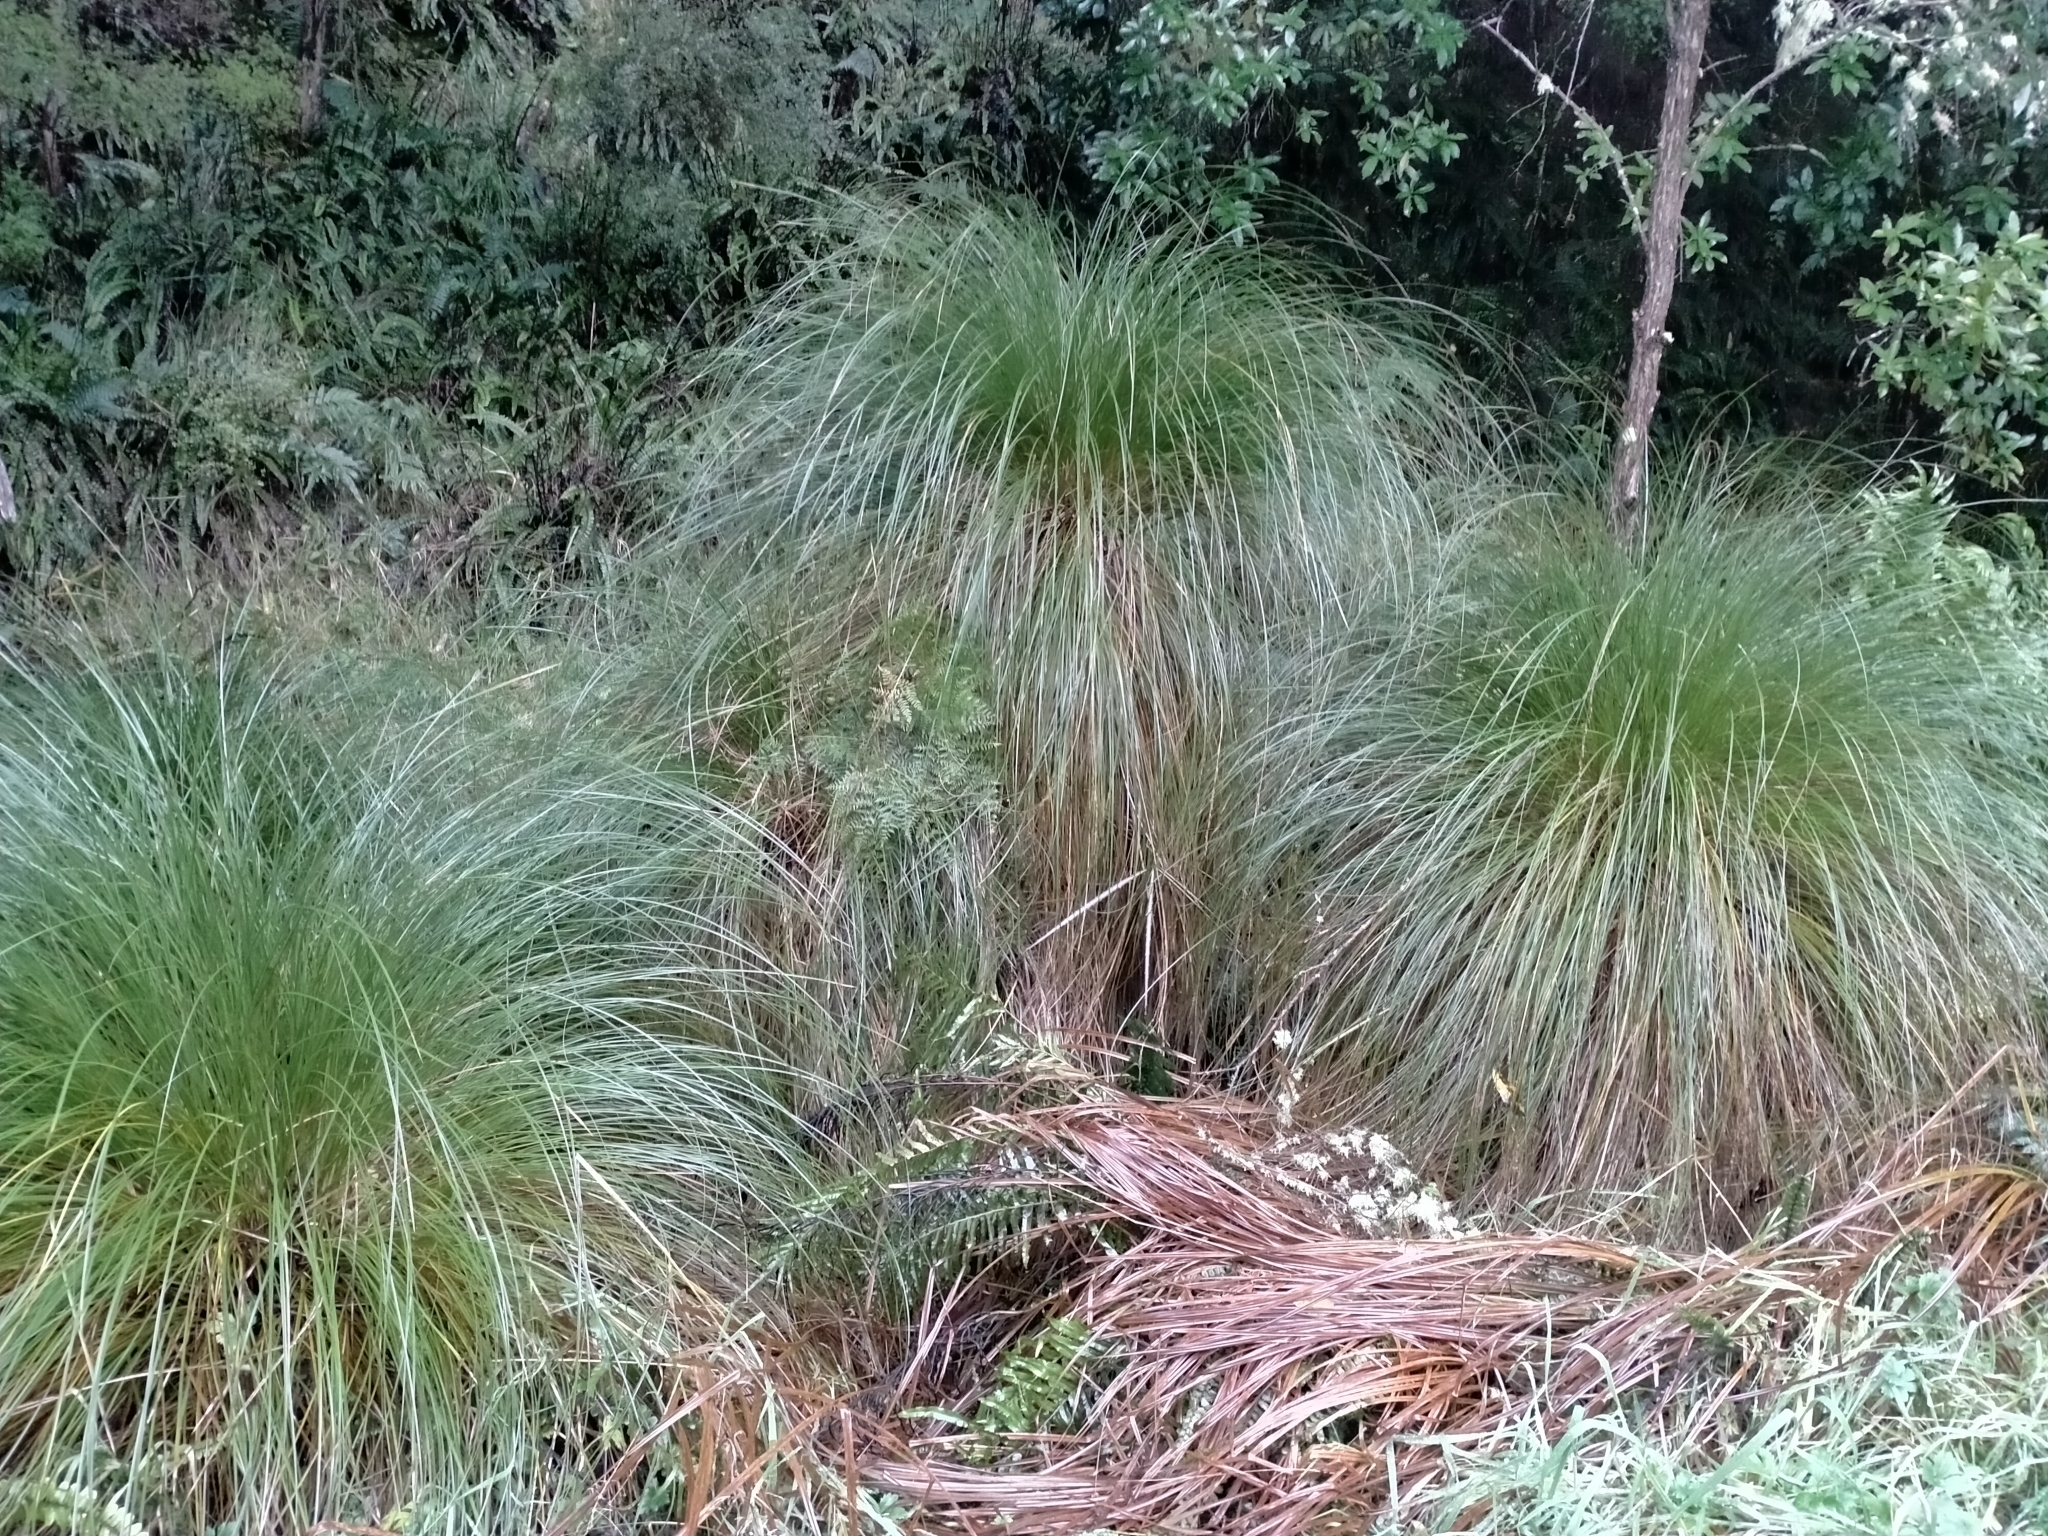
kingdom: Plantae
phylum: Tracheophyta
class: Liliopsida
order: Poales
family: Cyperaceae
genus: Carex
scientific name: Carex secta
